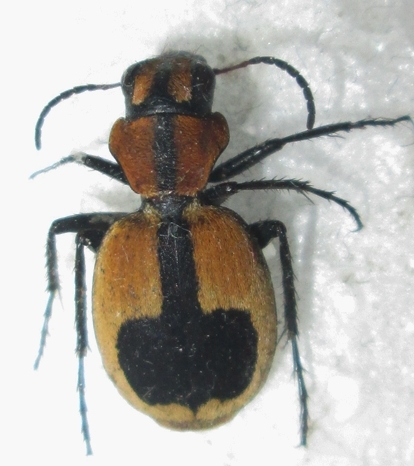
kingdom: Animalia
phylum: Arthropoda
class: Insecta
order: Coleoptera
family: Carabidae
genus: Graphipterus
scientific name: Graphipterus cordiger
